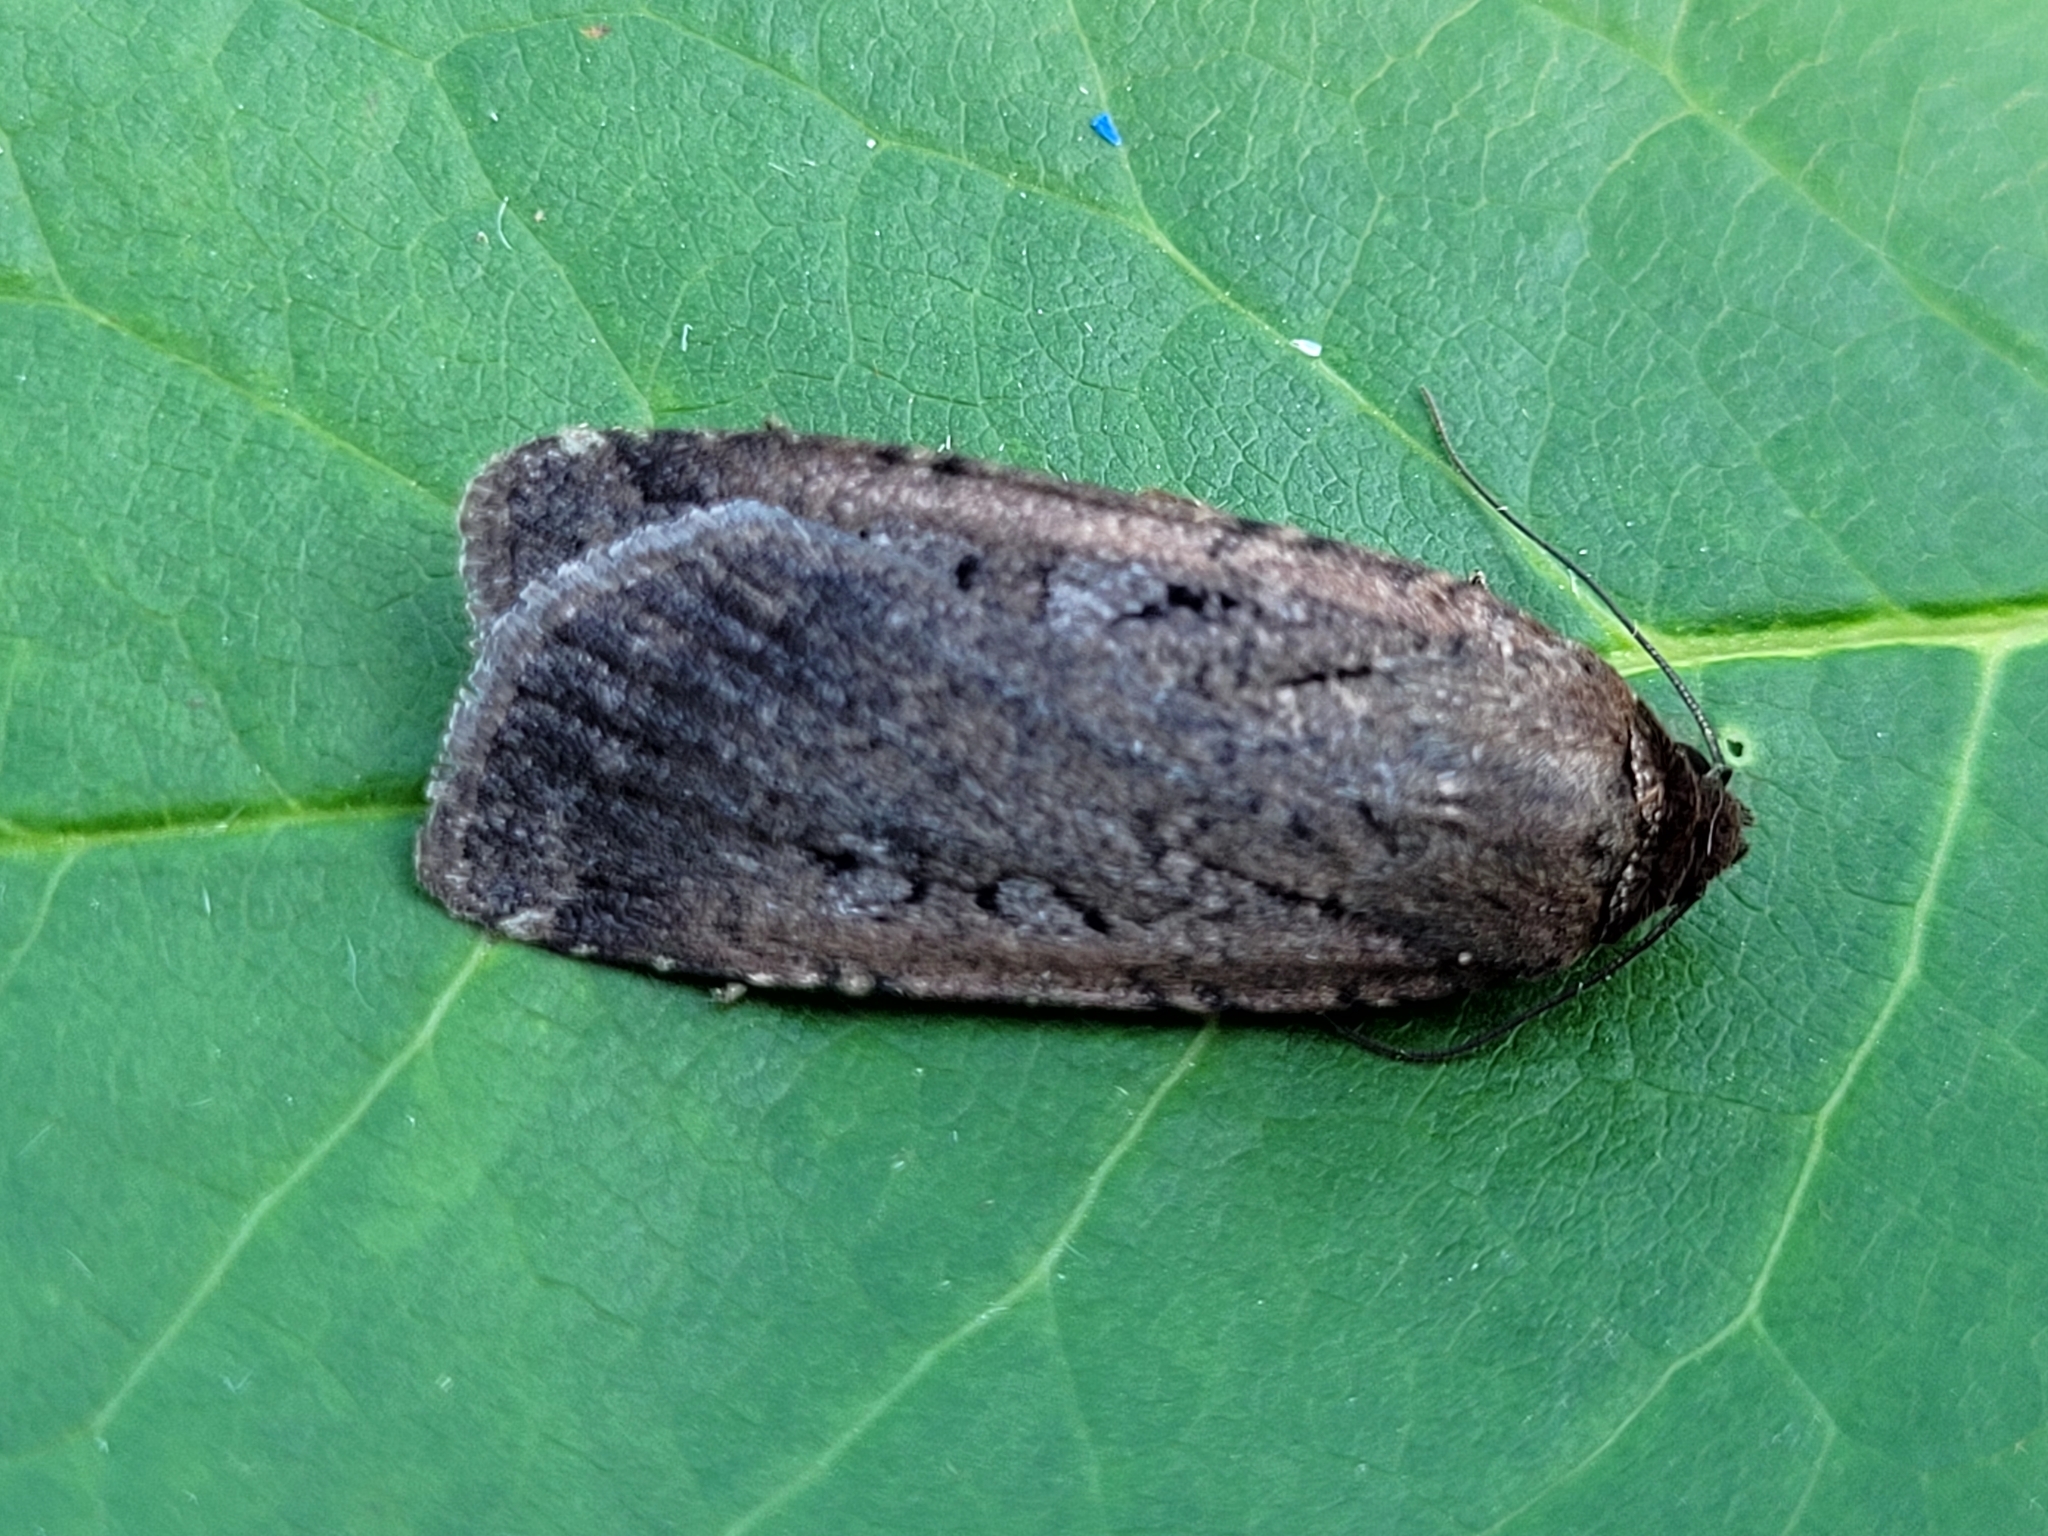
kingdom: Animalia
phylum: Arthropoda
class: Insecta
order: Lepidoptera
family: Noctuidae
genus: Spaelotis
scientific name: Spaelotis clandestina
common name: Clandestine dart
